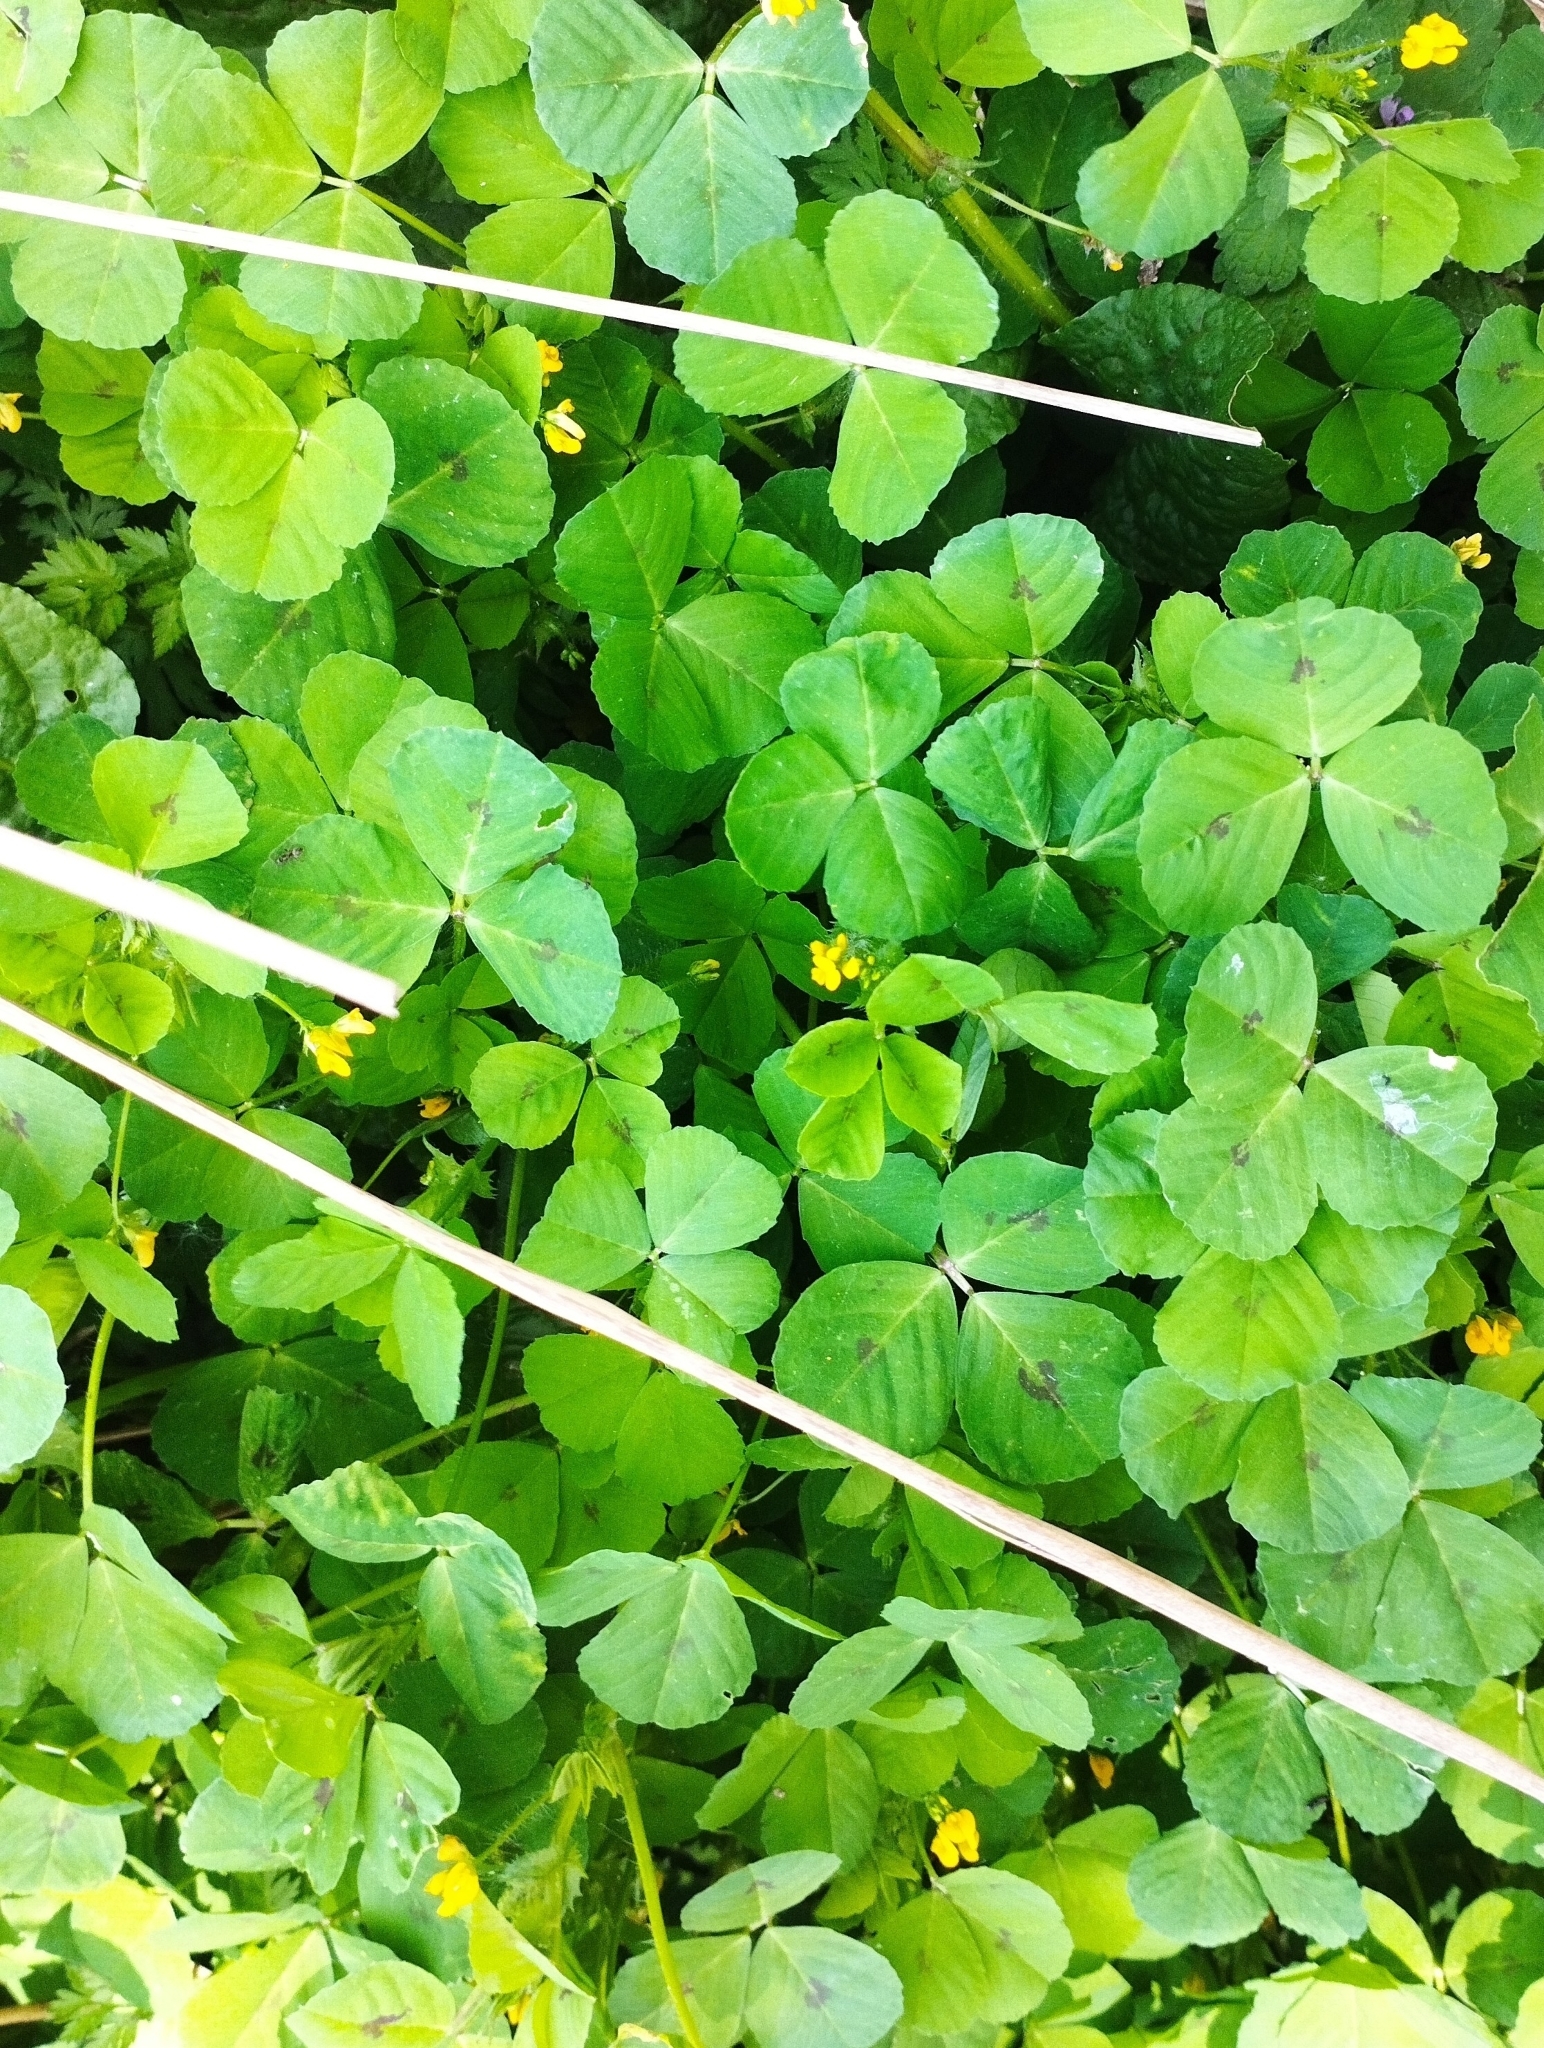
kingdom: Plantae
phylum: Tracheophyta
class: Magnoliopsida
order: Fabales
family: Fabaceae
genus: Medicago
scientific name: Medicago arabica
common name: Spotted medick
